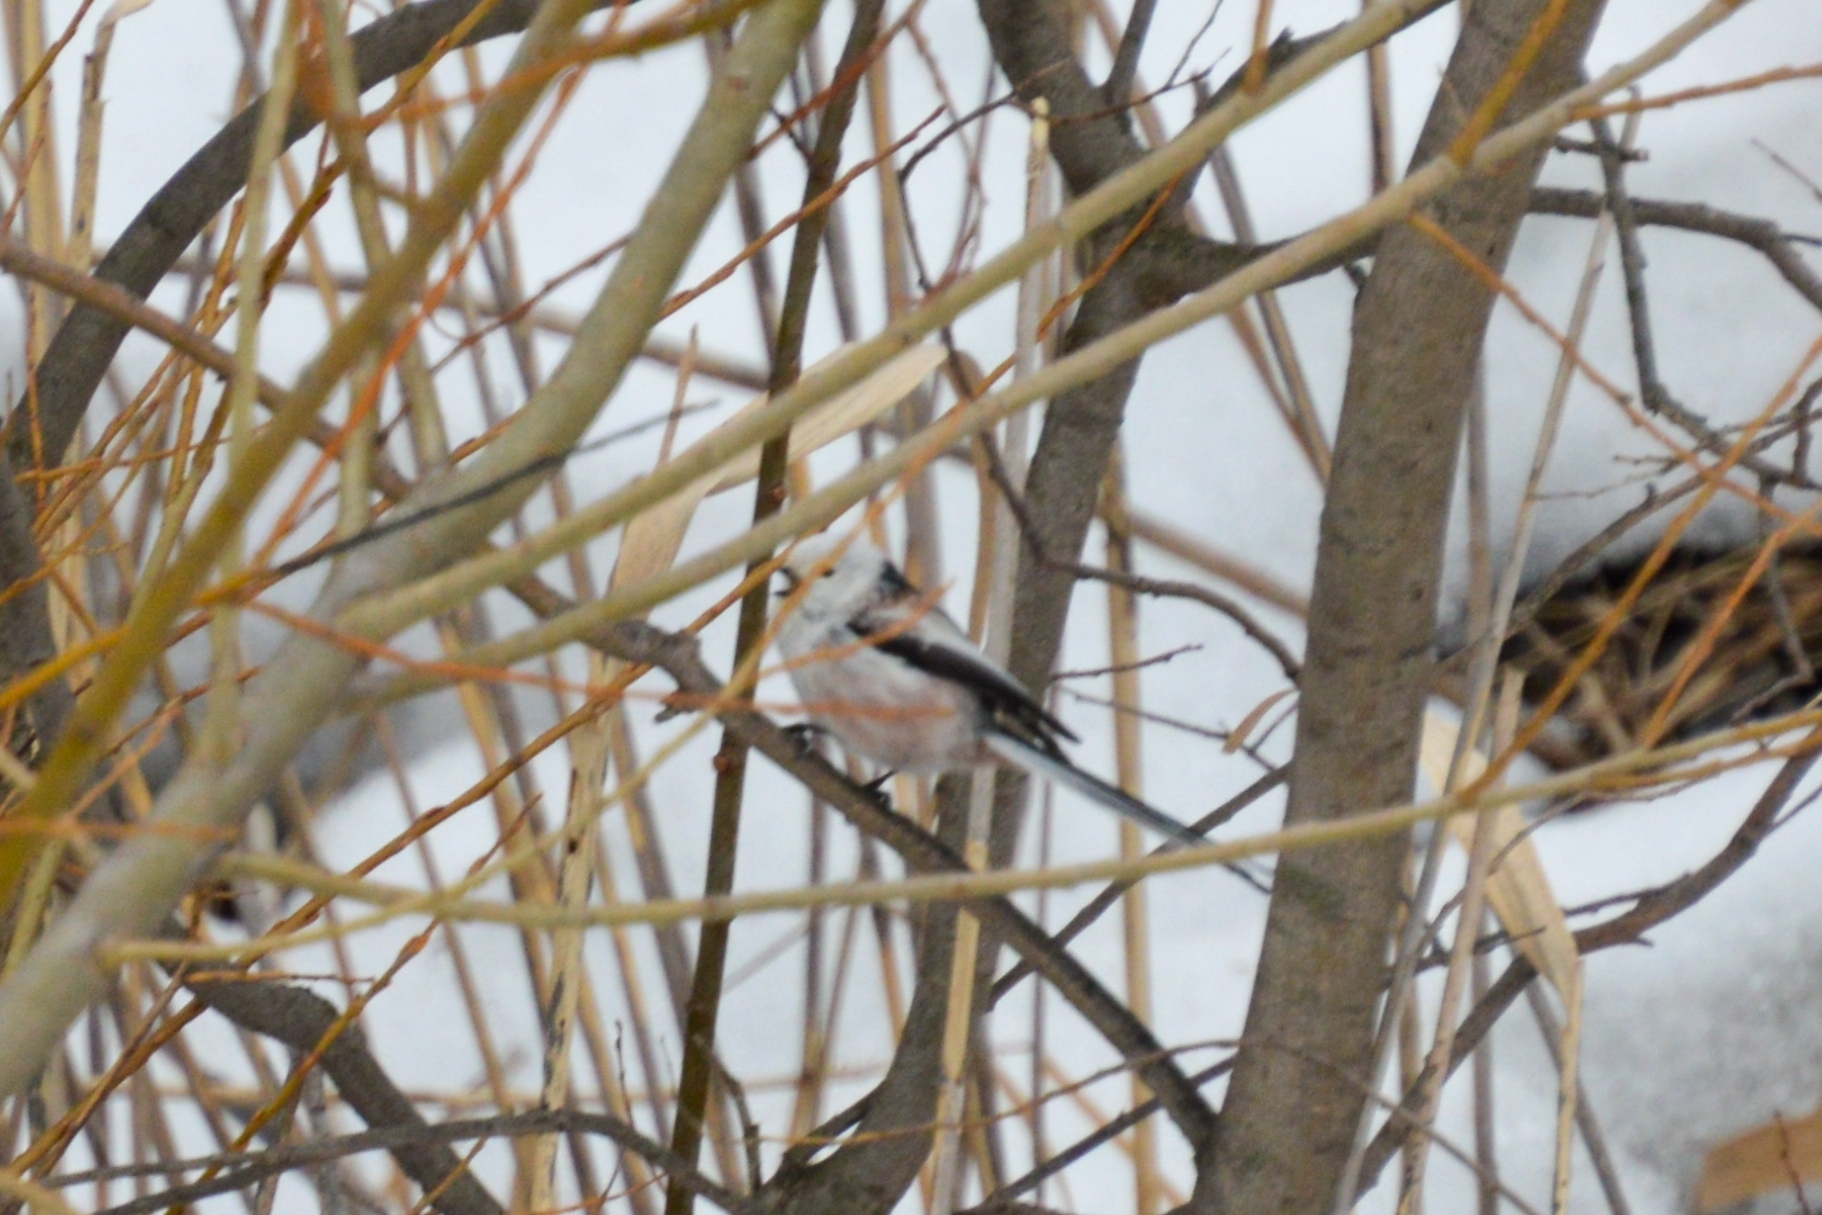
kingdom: Animalia
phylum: Chordata
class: Aves
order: Passeriformes
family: Aegithalidae
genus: Aegithalos
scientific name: Aegithalos caudatus
